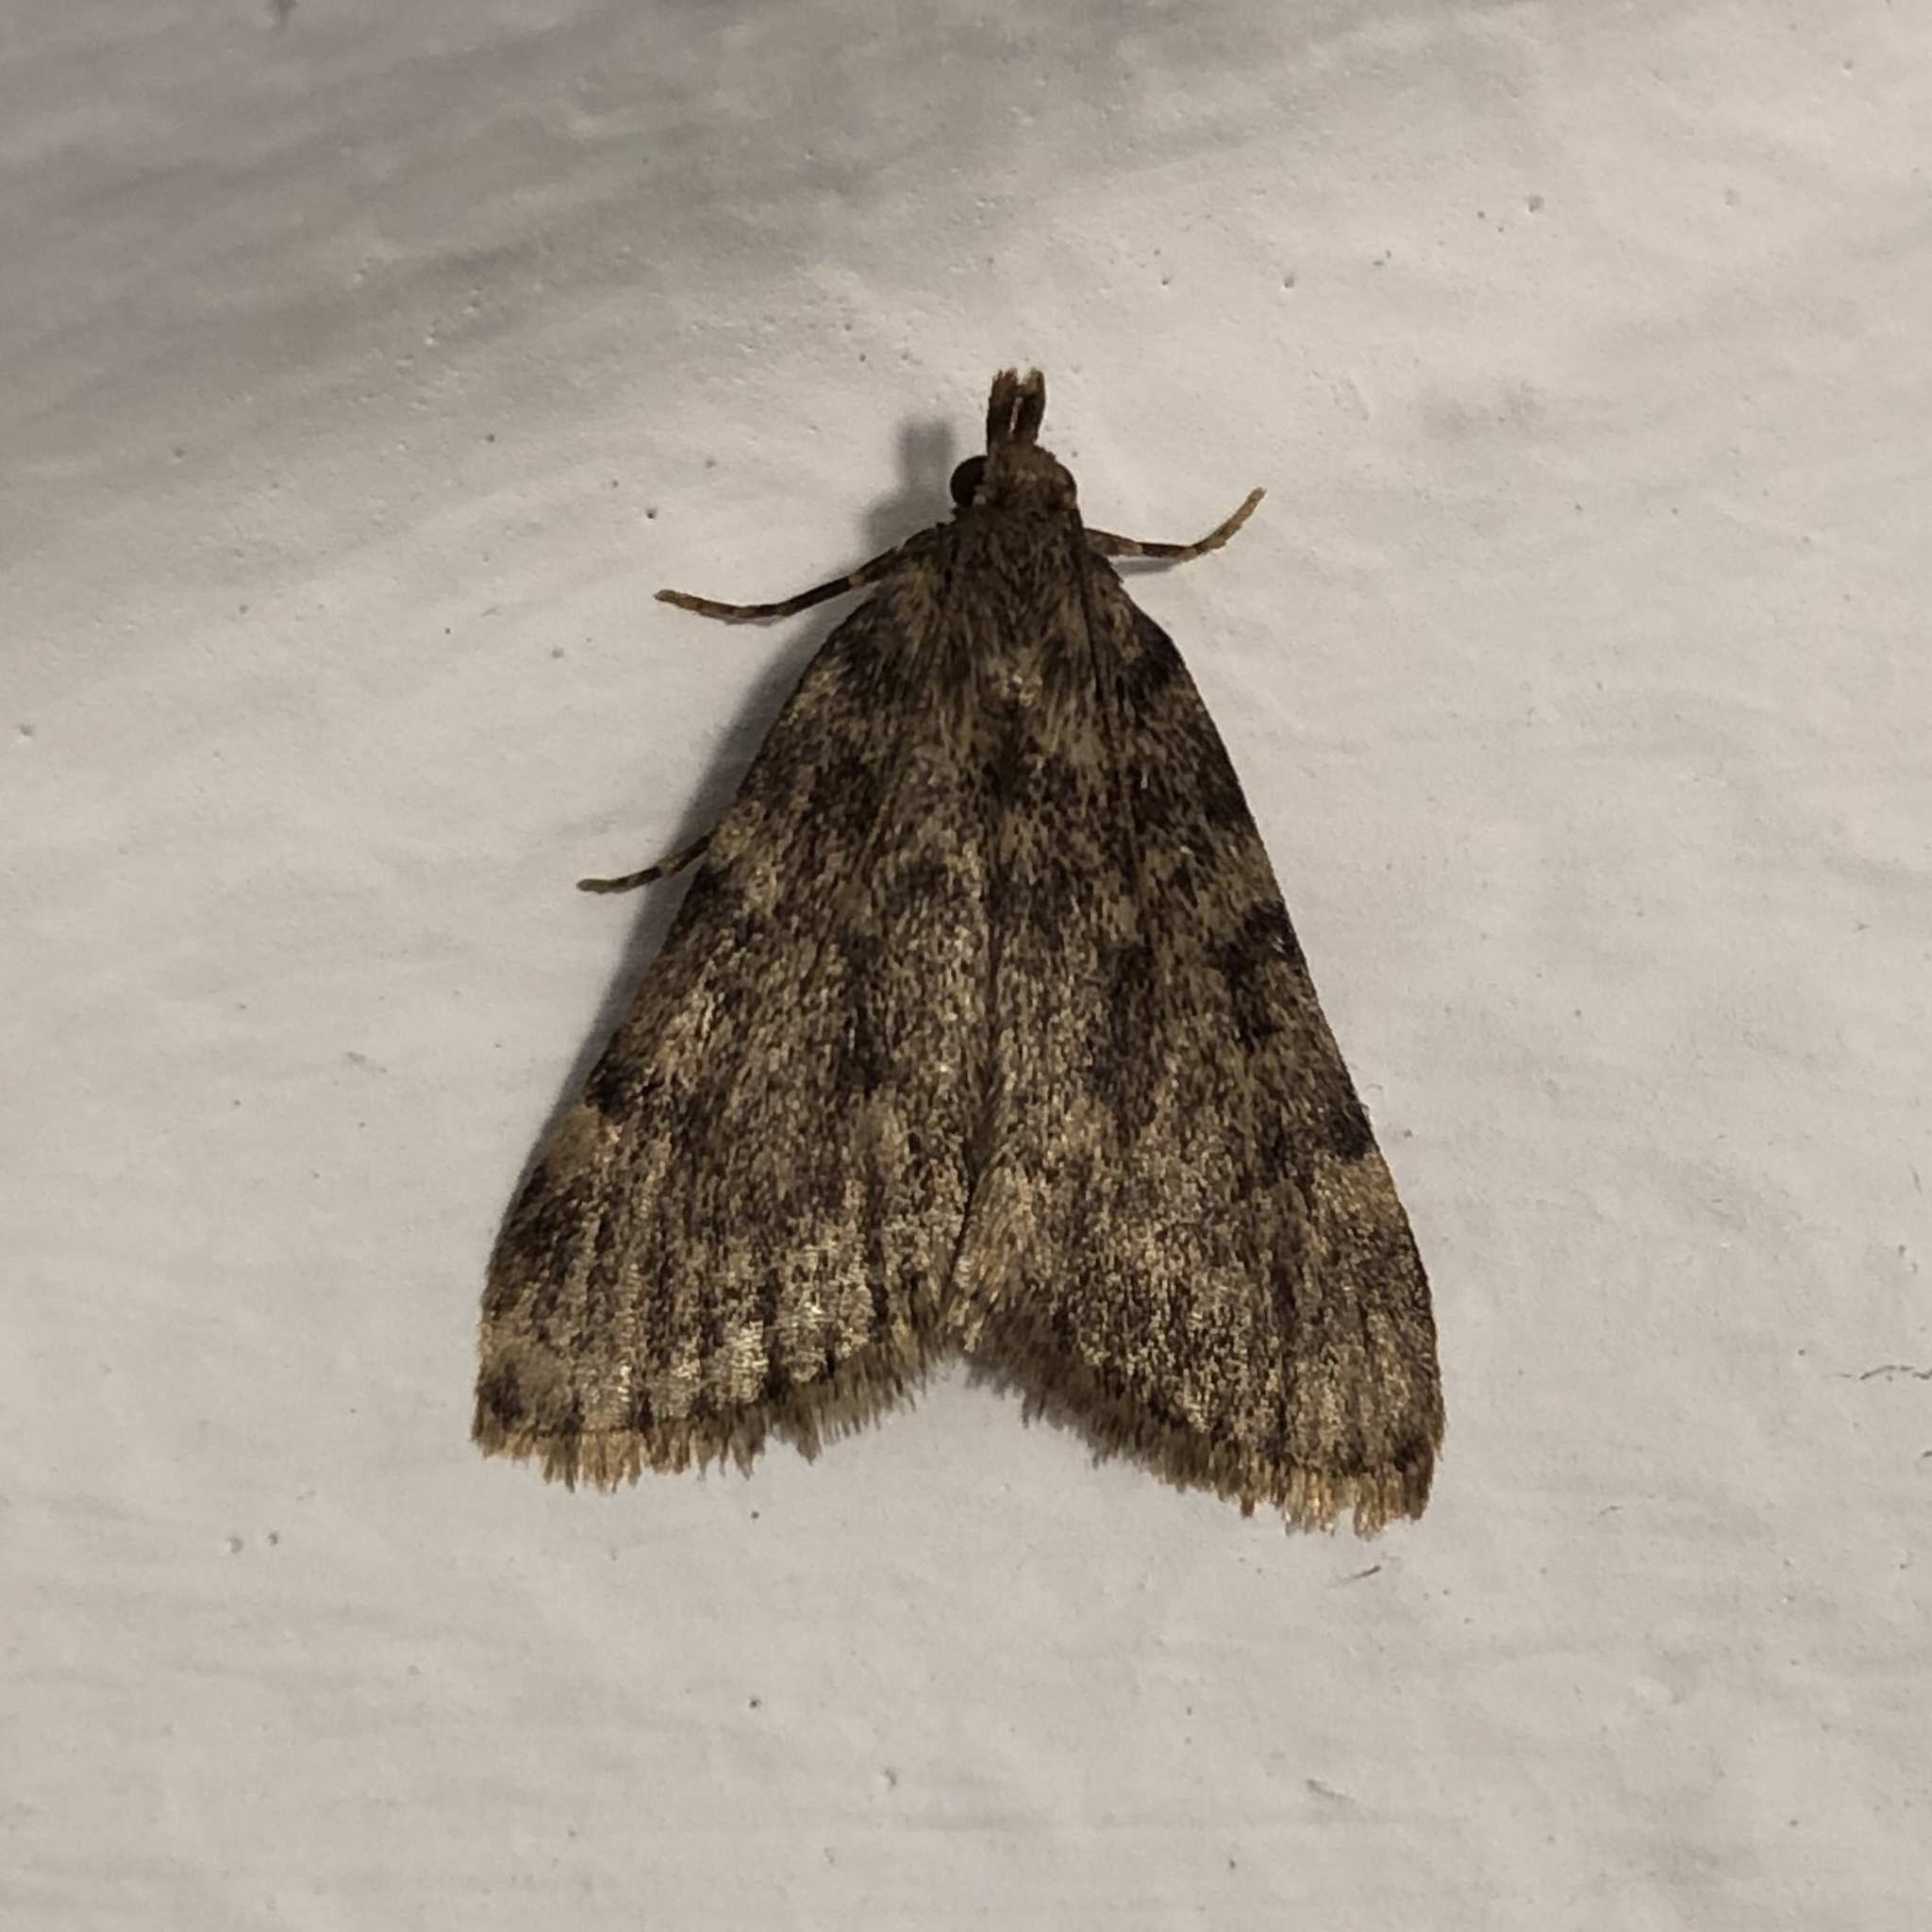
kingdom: Animalia
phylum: Arthropoda
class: Insecta
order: Lepidoptera
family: Pyralidae
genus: Aglossa
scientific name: Aglossa pinguinalis
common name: Large tabby
